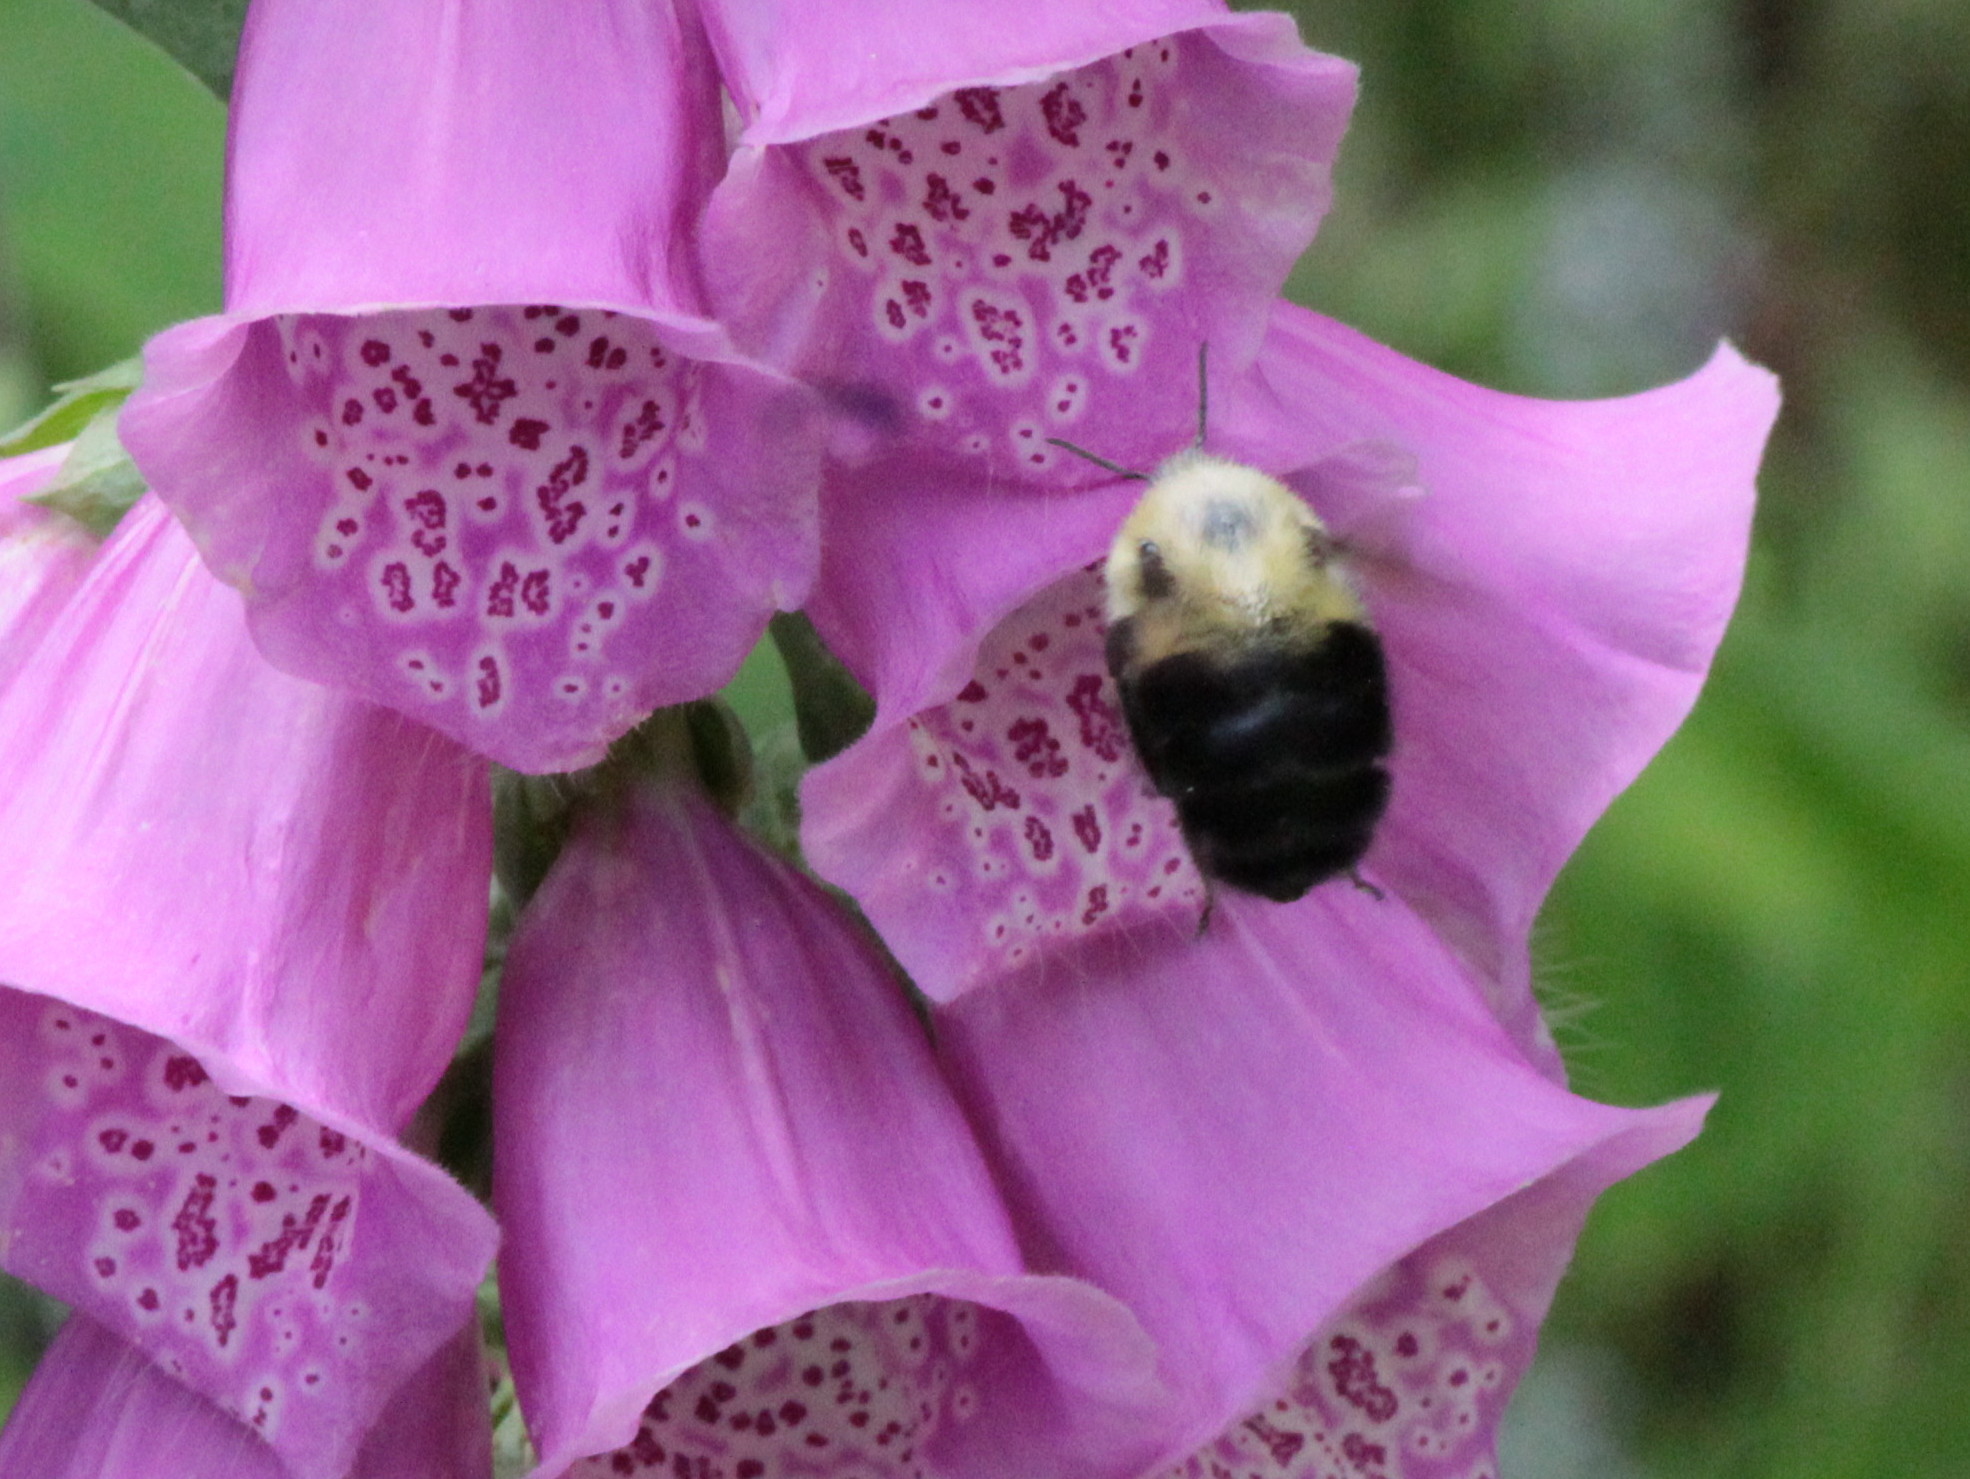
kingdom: Animalia
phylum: Arthropoda
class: Insecta
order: Hymenoptera
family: Apidae
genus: Bombus
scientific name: Bombus bimaculatus
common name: Two-spotted bumble bee
